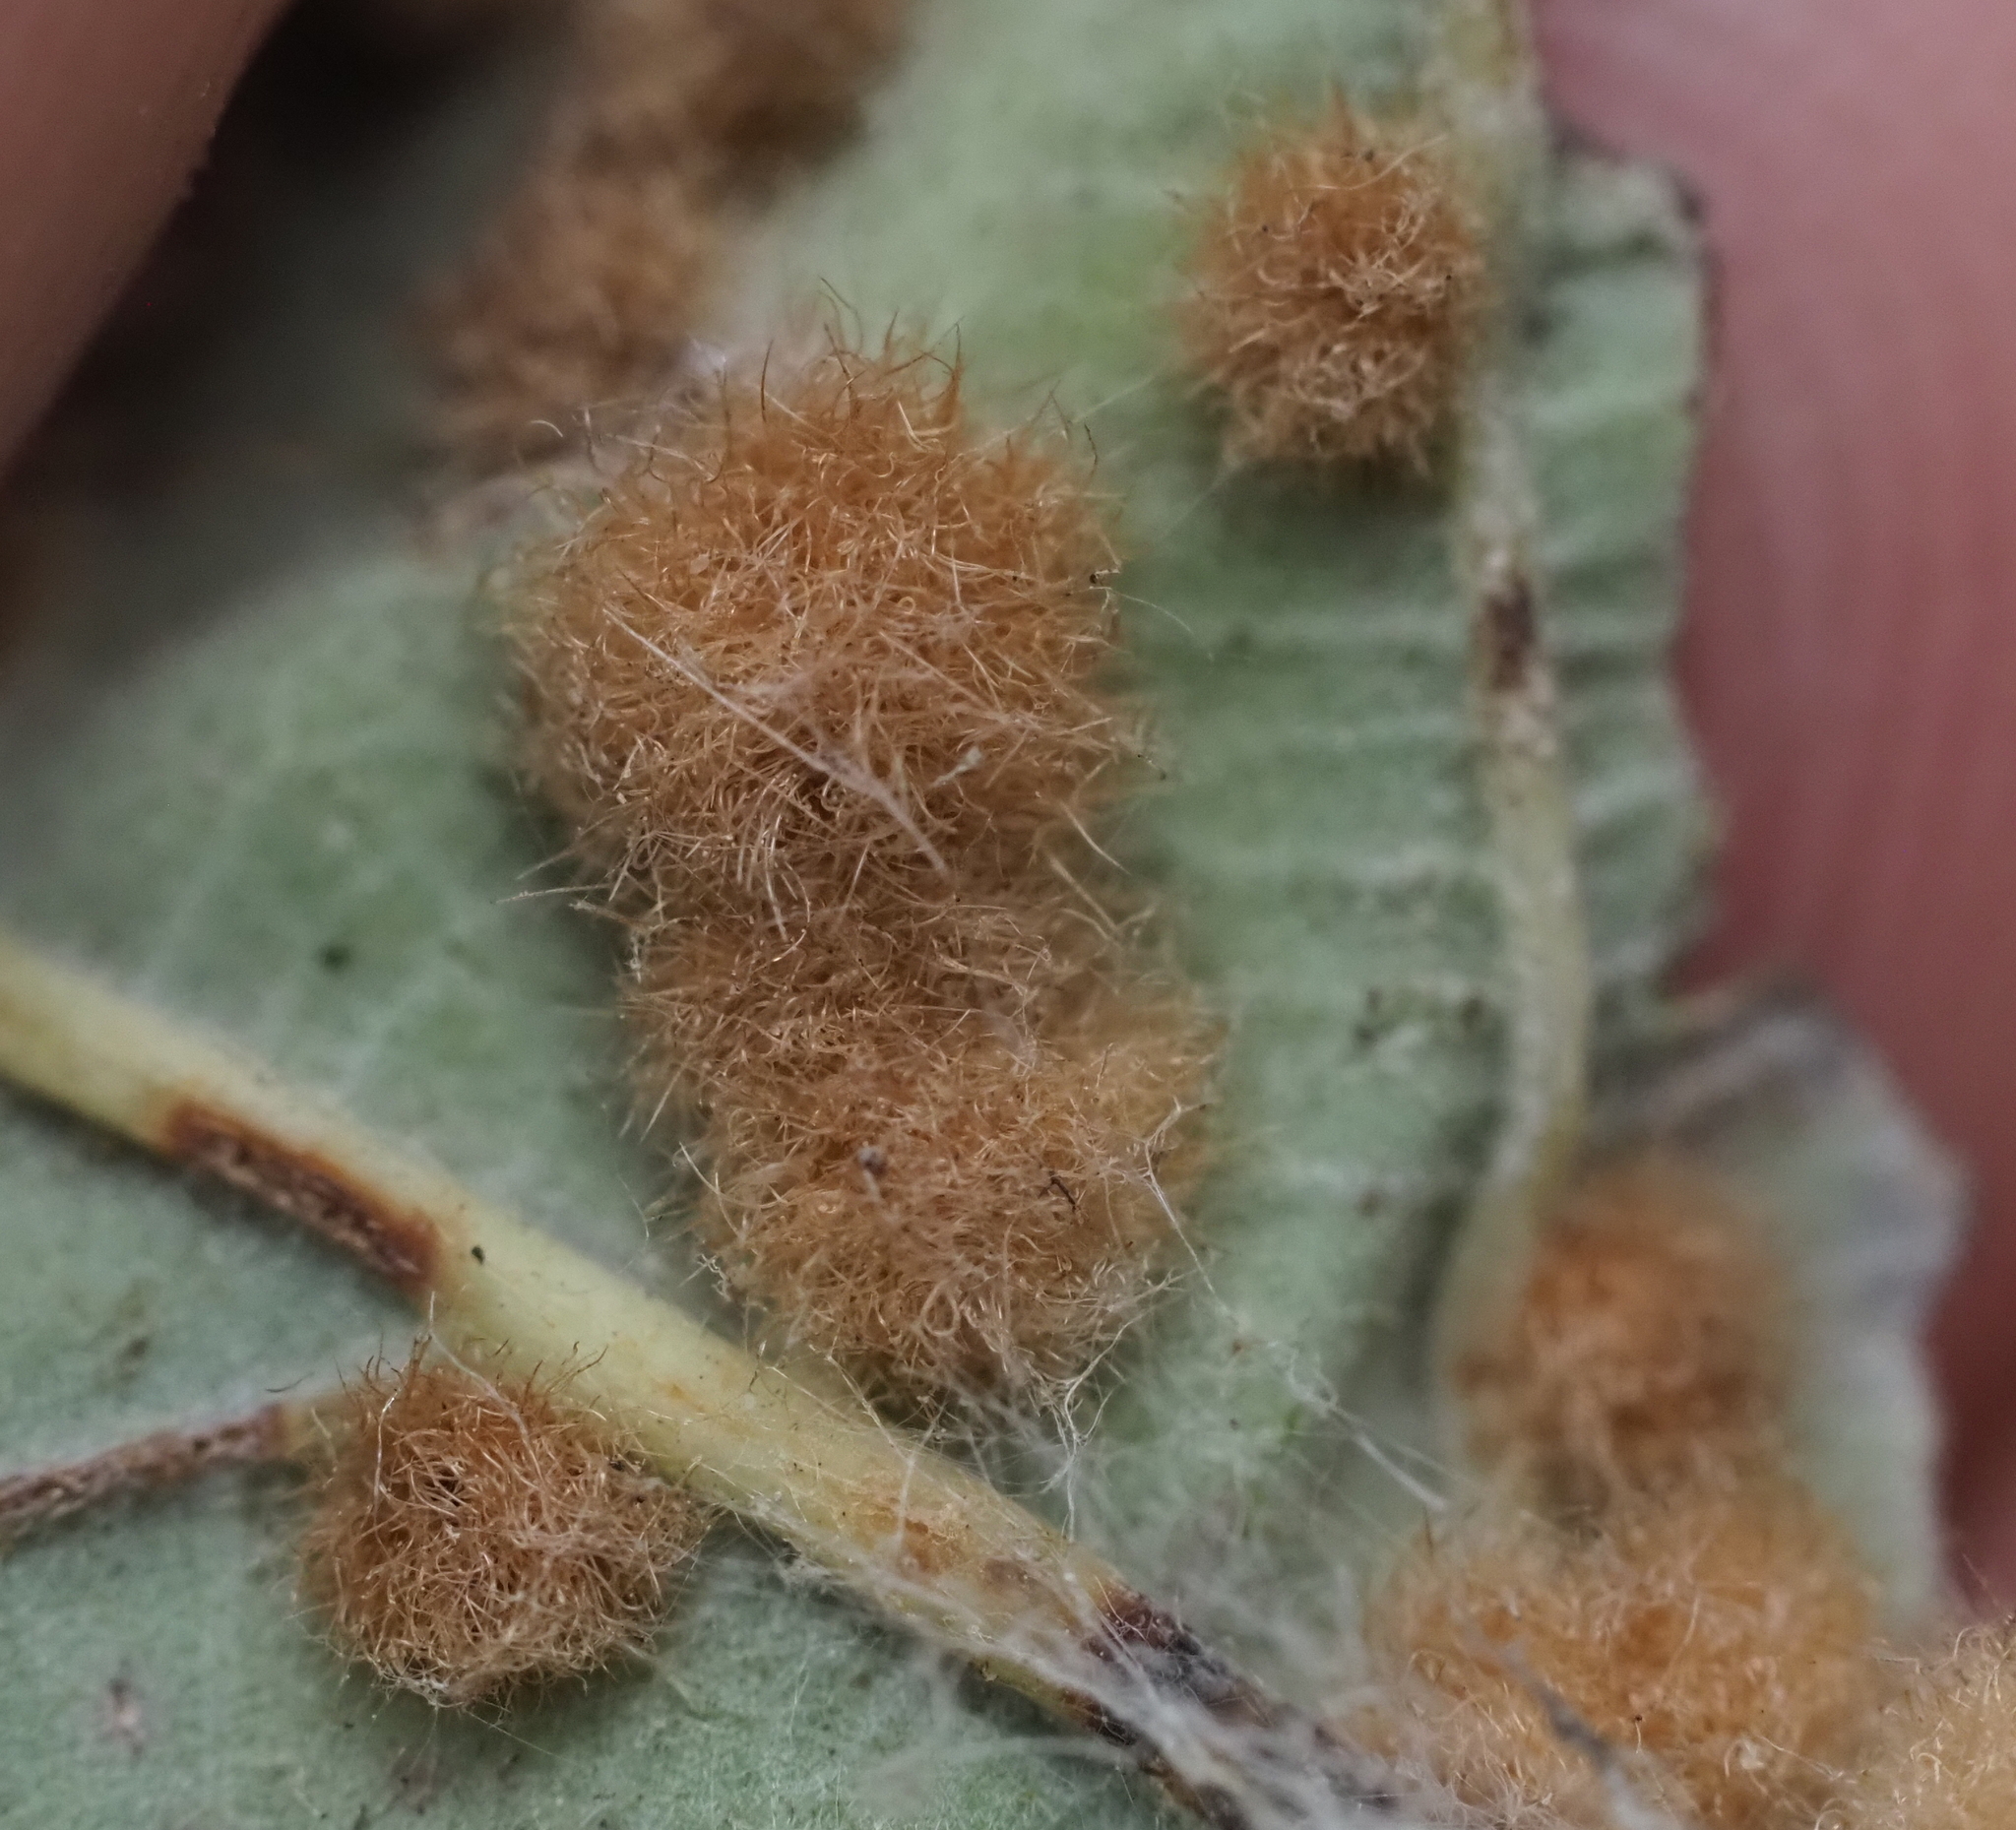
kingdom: Animalia
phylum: Arthropoda
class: Insecta
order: Hymenoptera
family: Cynipidae
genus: Neuroterus
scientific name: Neuroterus quercusverrucarum
